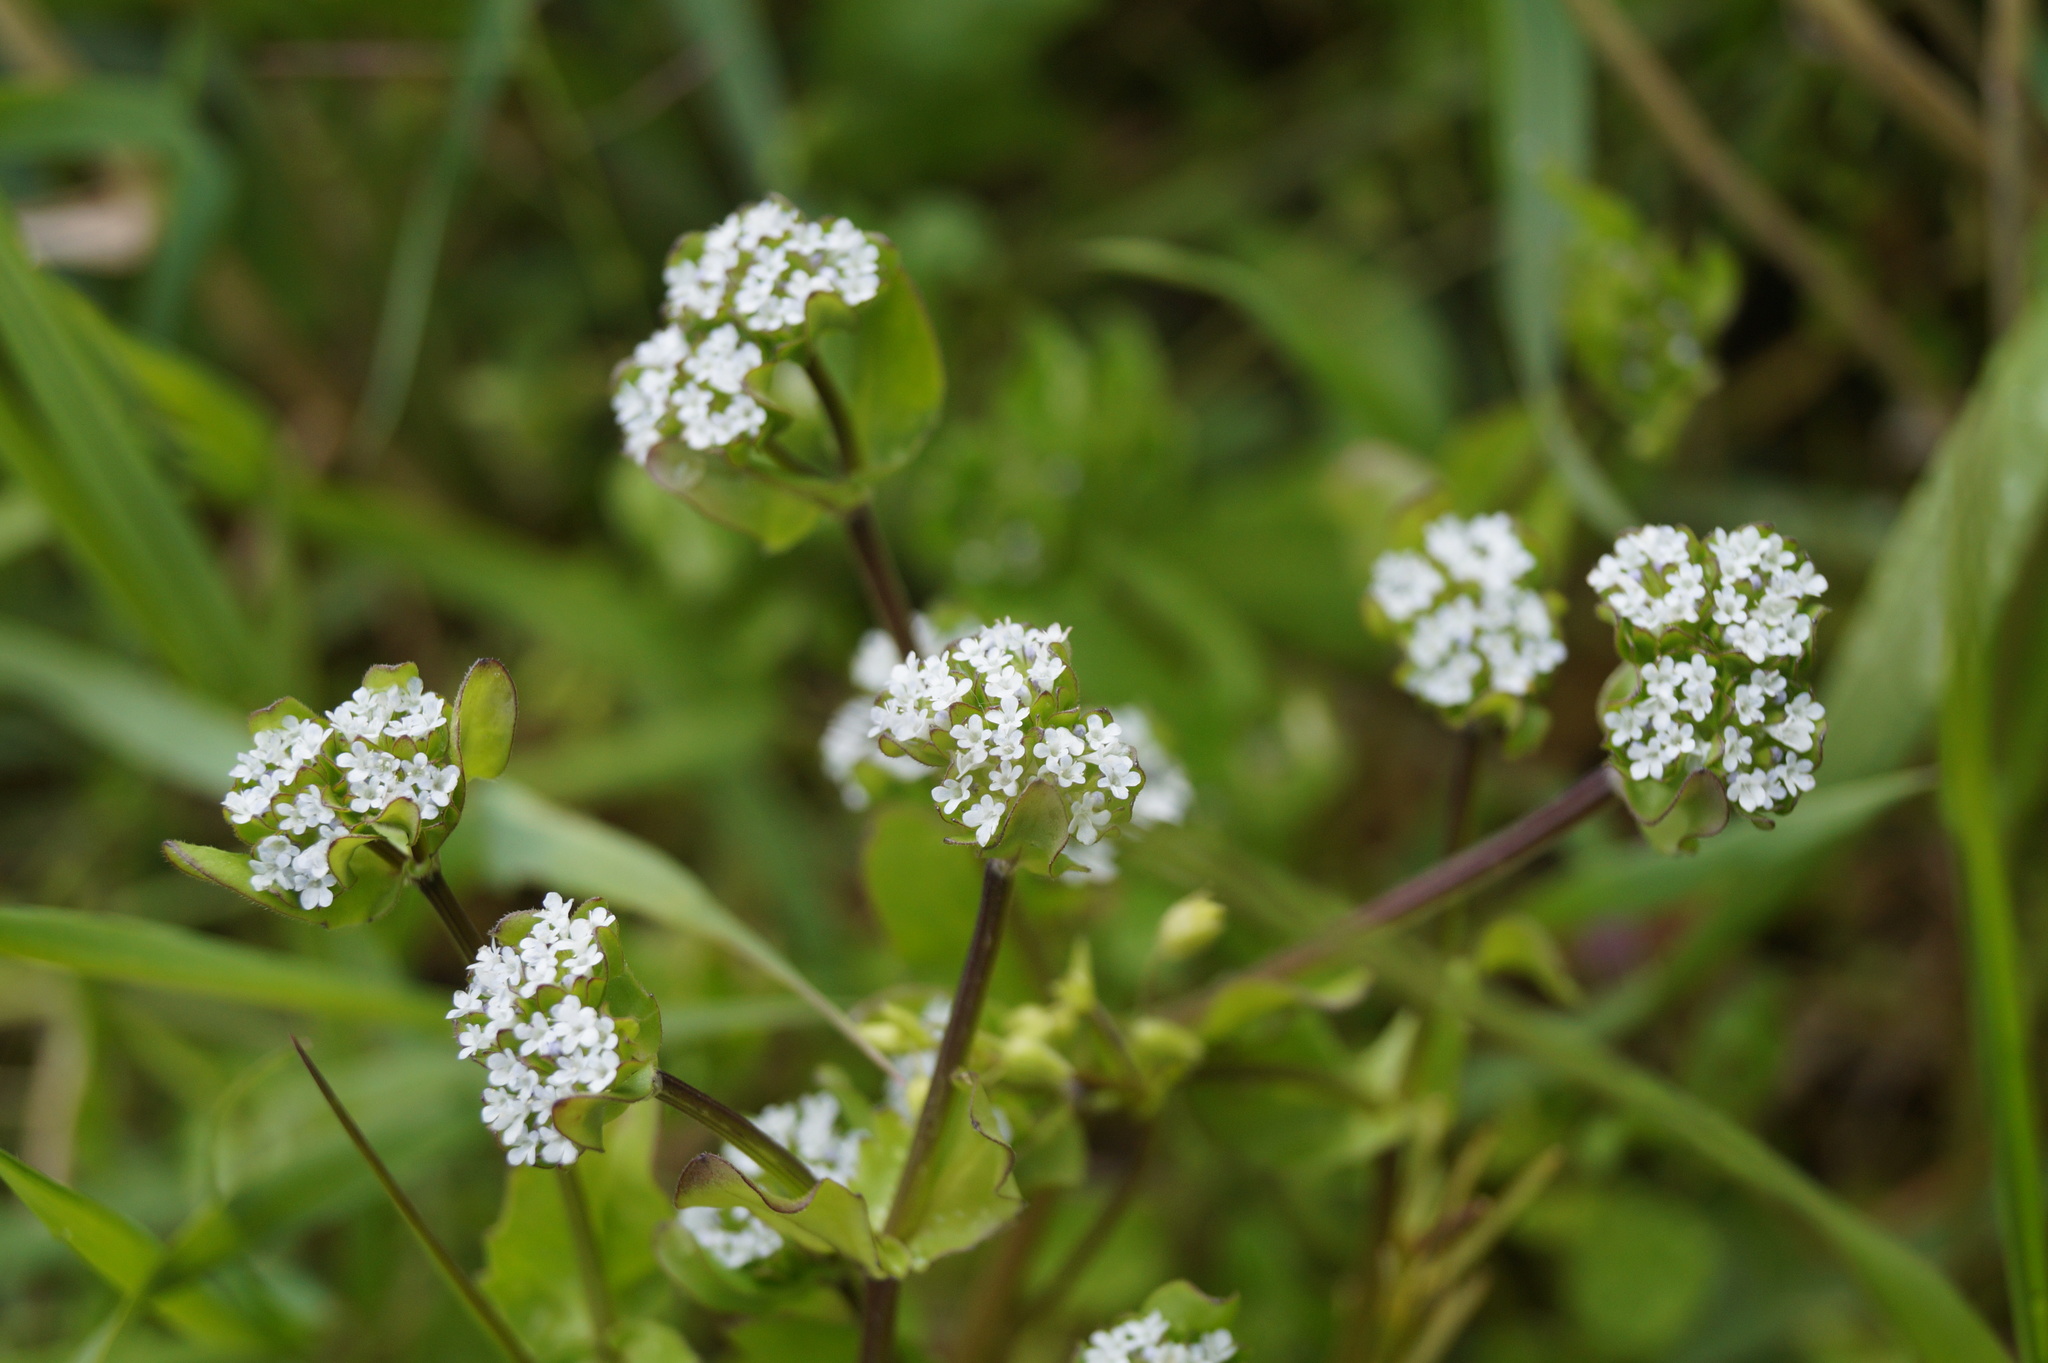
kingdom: Plantae
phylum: Tracheophyta
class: Magnoliopsida
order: Dipsacales
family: Caprifoliaceae
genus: Valerianella
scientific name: Valerianella locusta
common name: Common cornsalad
